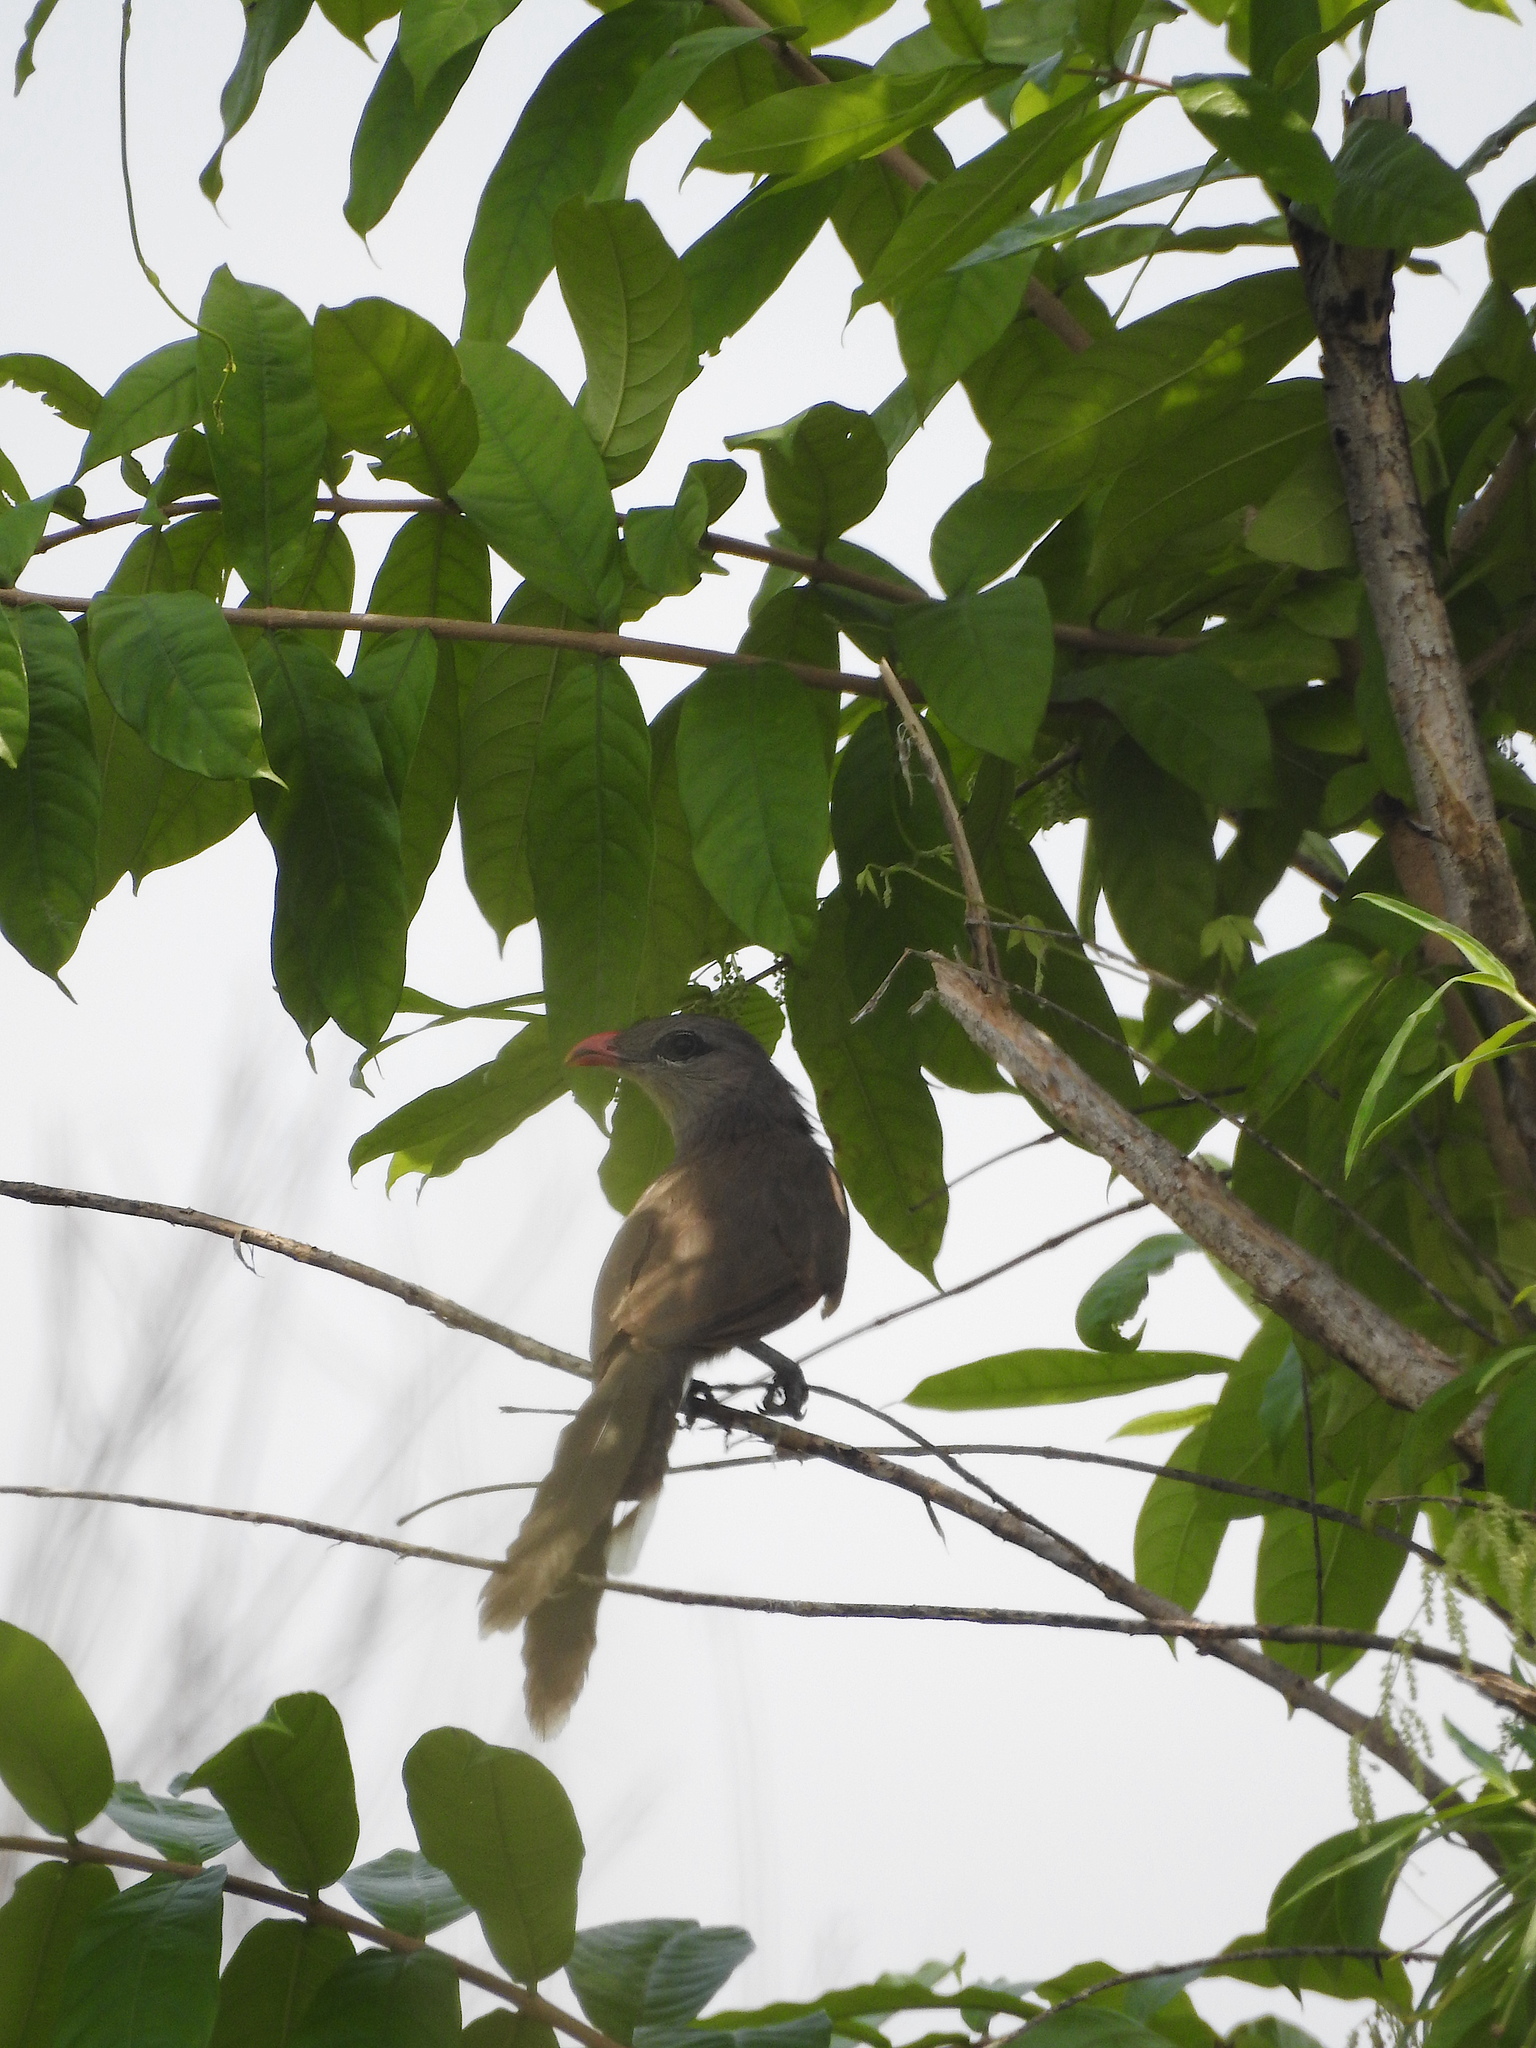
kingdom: Animalia
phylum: Chordata
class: Aves
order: Cuculiformes
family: Cuculidae
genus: Taccocua
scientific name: Taccocua leschenaultii
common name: Sirkeer malkoha
